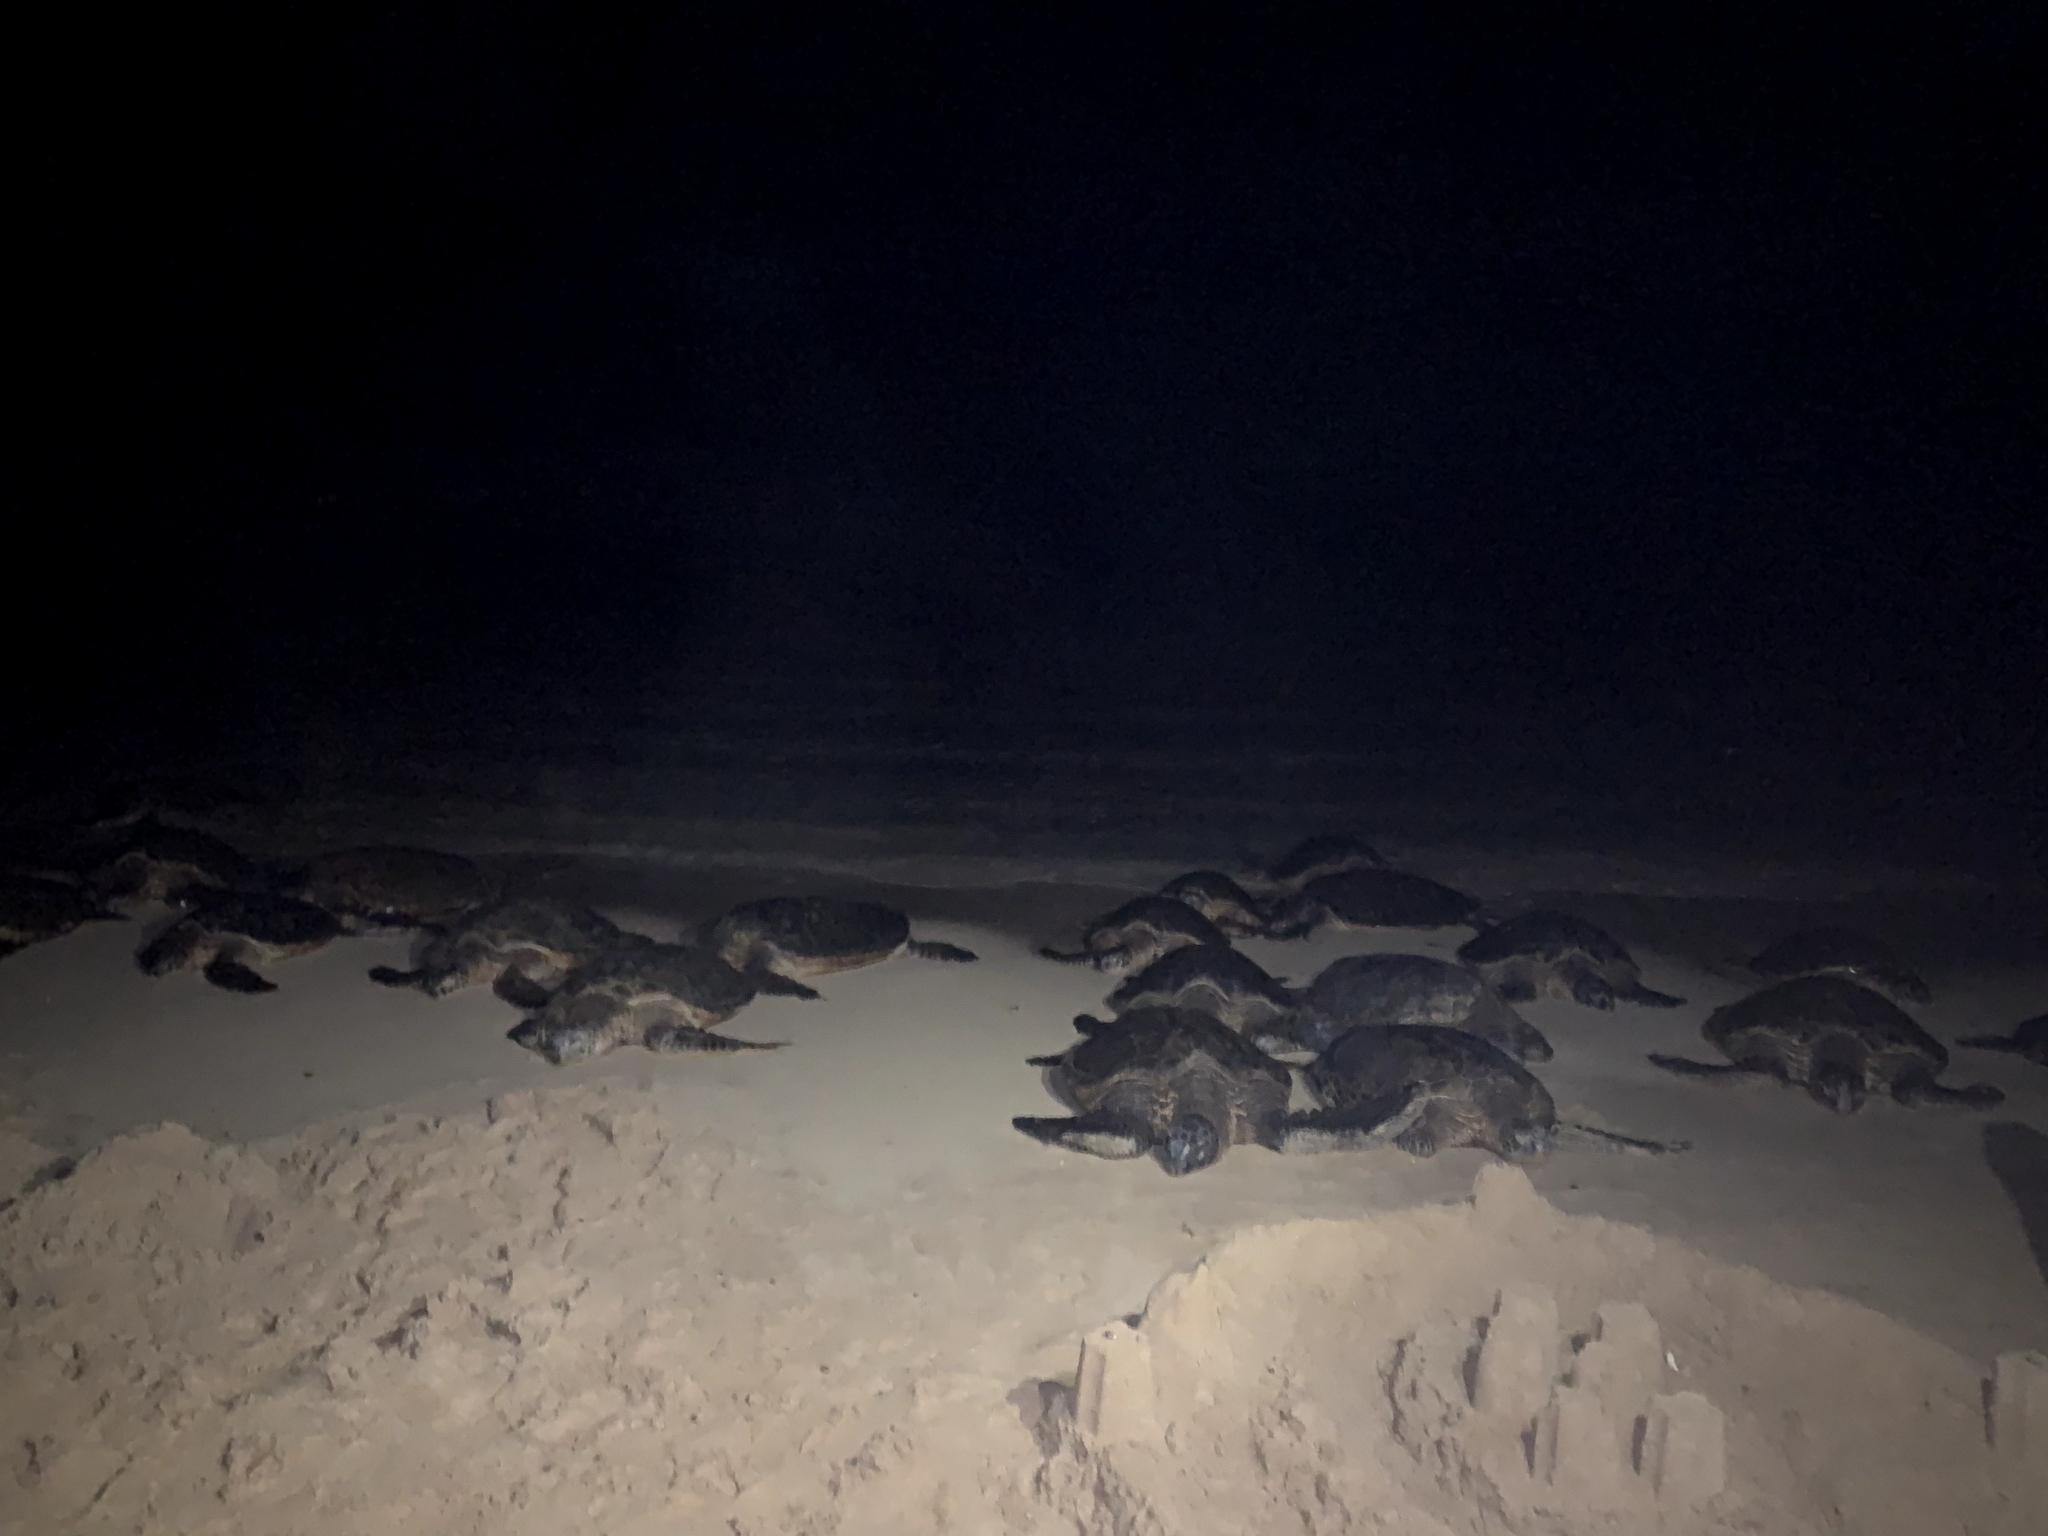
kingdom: Animalia
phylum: Chordata
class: Testudines
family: Cheloniidae
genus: Chelonia
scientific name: Chelonia mydas
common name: Green turtle
